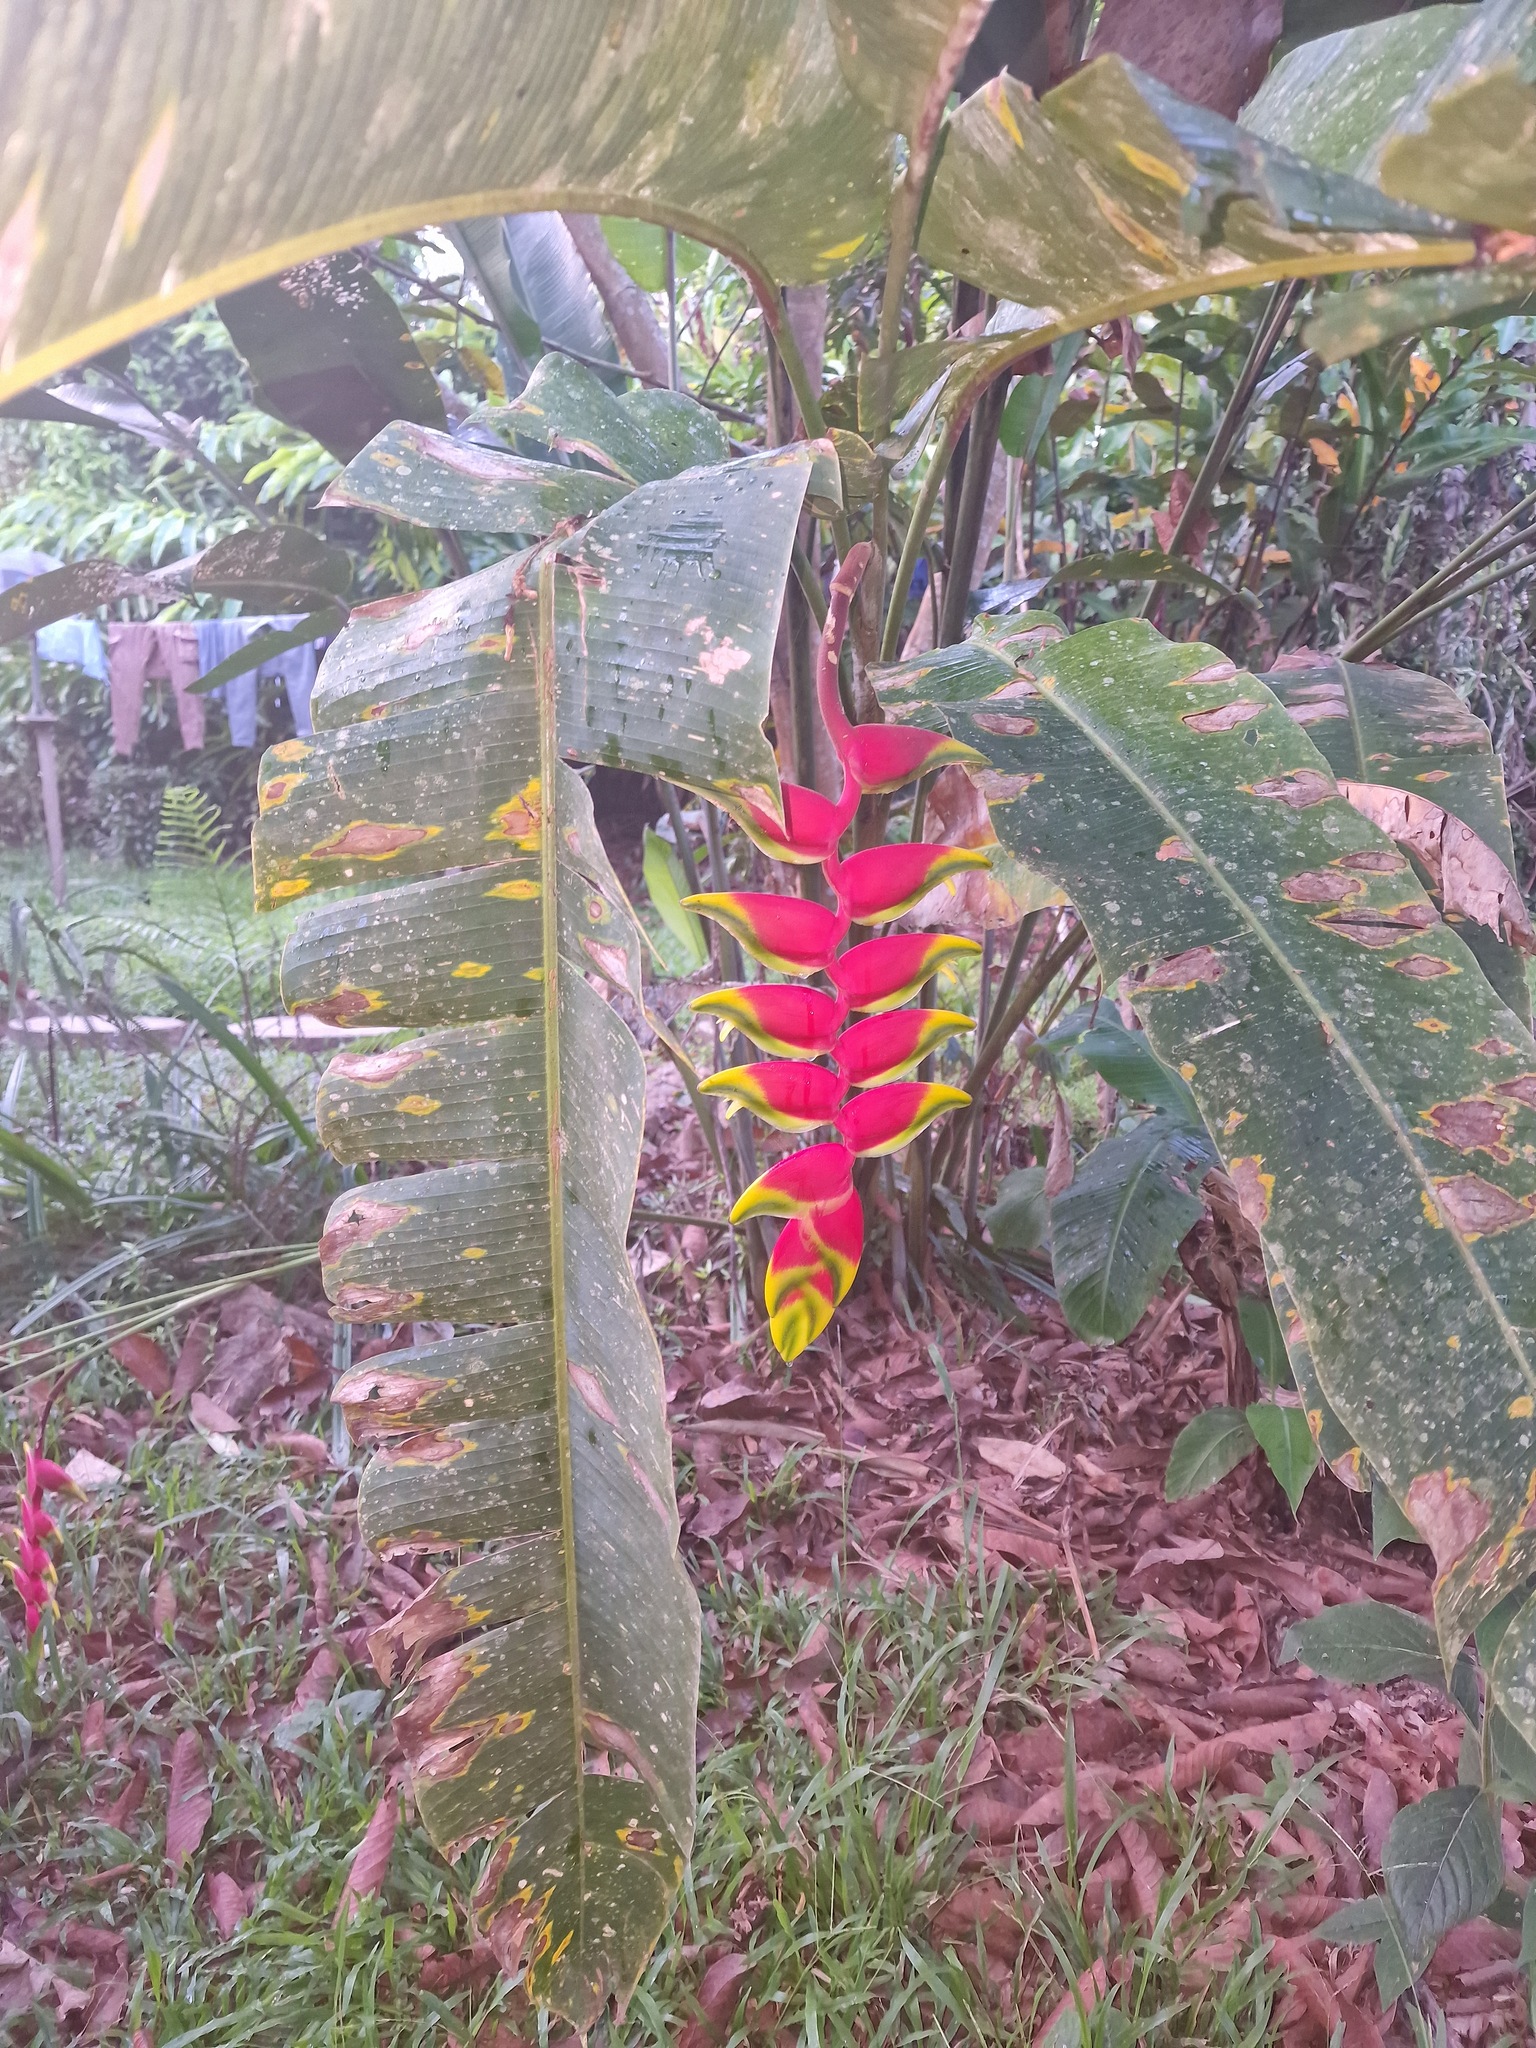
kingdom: Plantae
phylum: Tracheophyta
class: Liliopsida
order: Zingiberales
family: Heliconiaceae
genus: Heliconia
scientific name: Heliconia rostrata
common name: False bird of paradise
